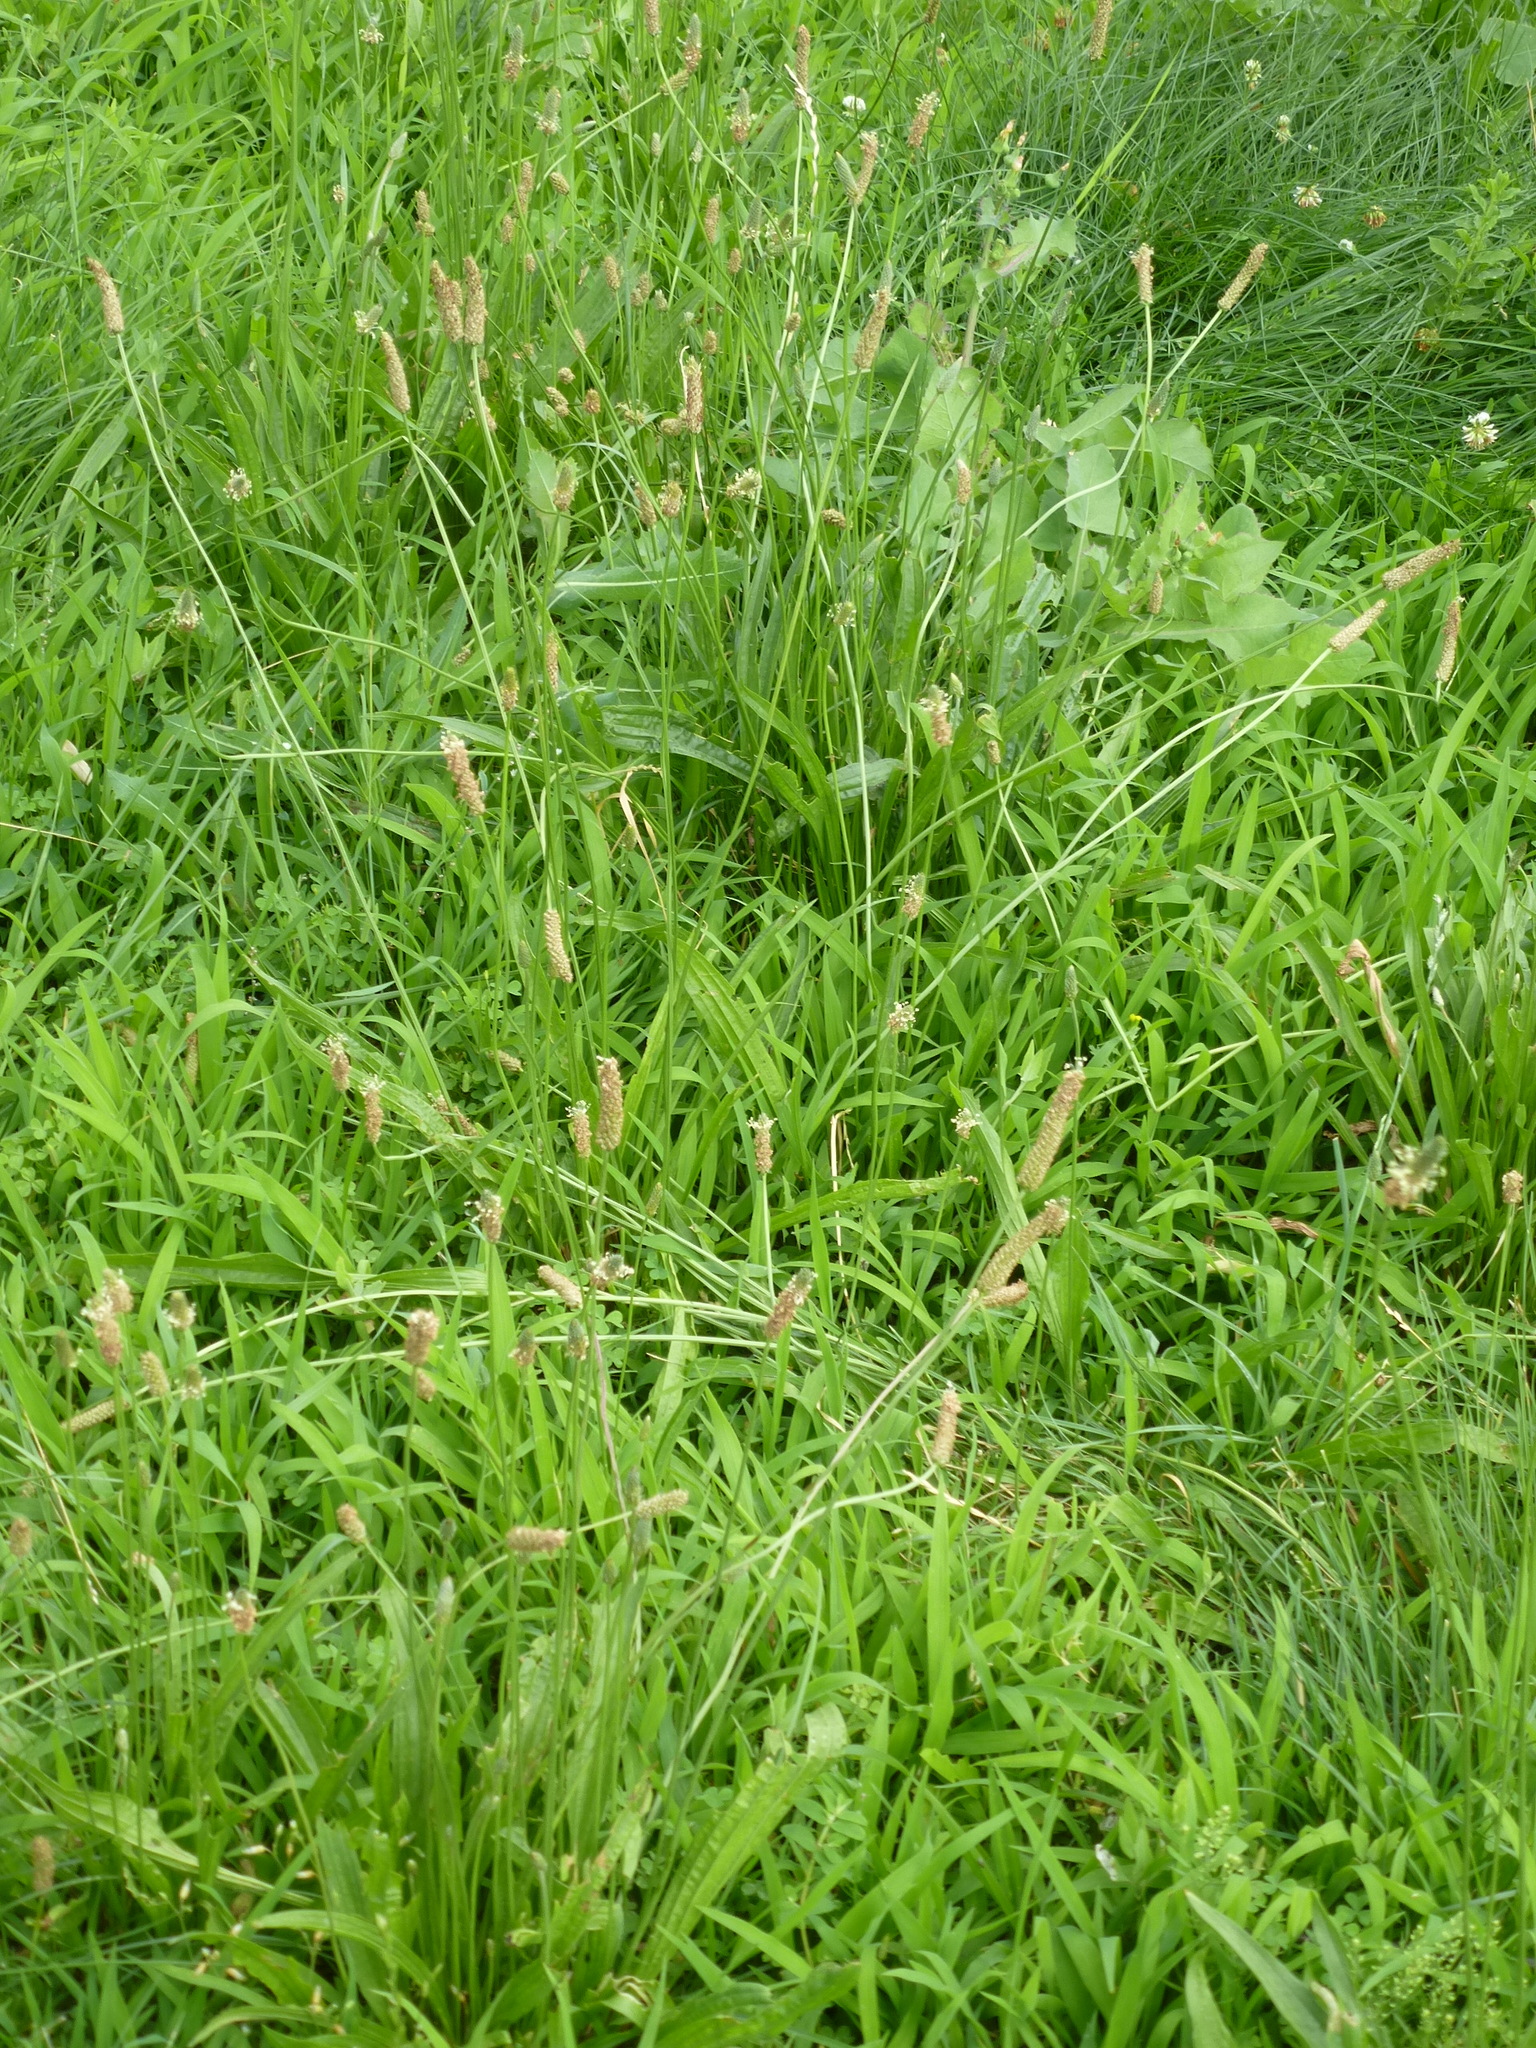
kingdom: Plantae
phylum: Tracheophyta
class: Magnoliopsida
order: Lamiales
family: Plantaginaceae
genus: Plantago
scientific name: Plantago lanceolata
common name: Ribwort plantain
